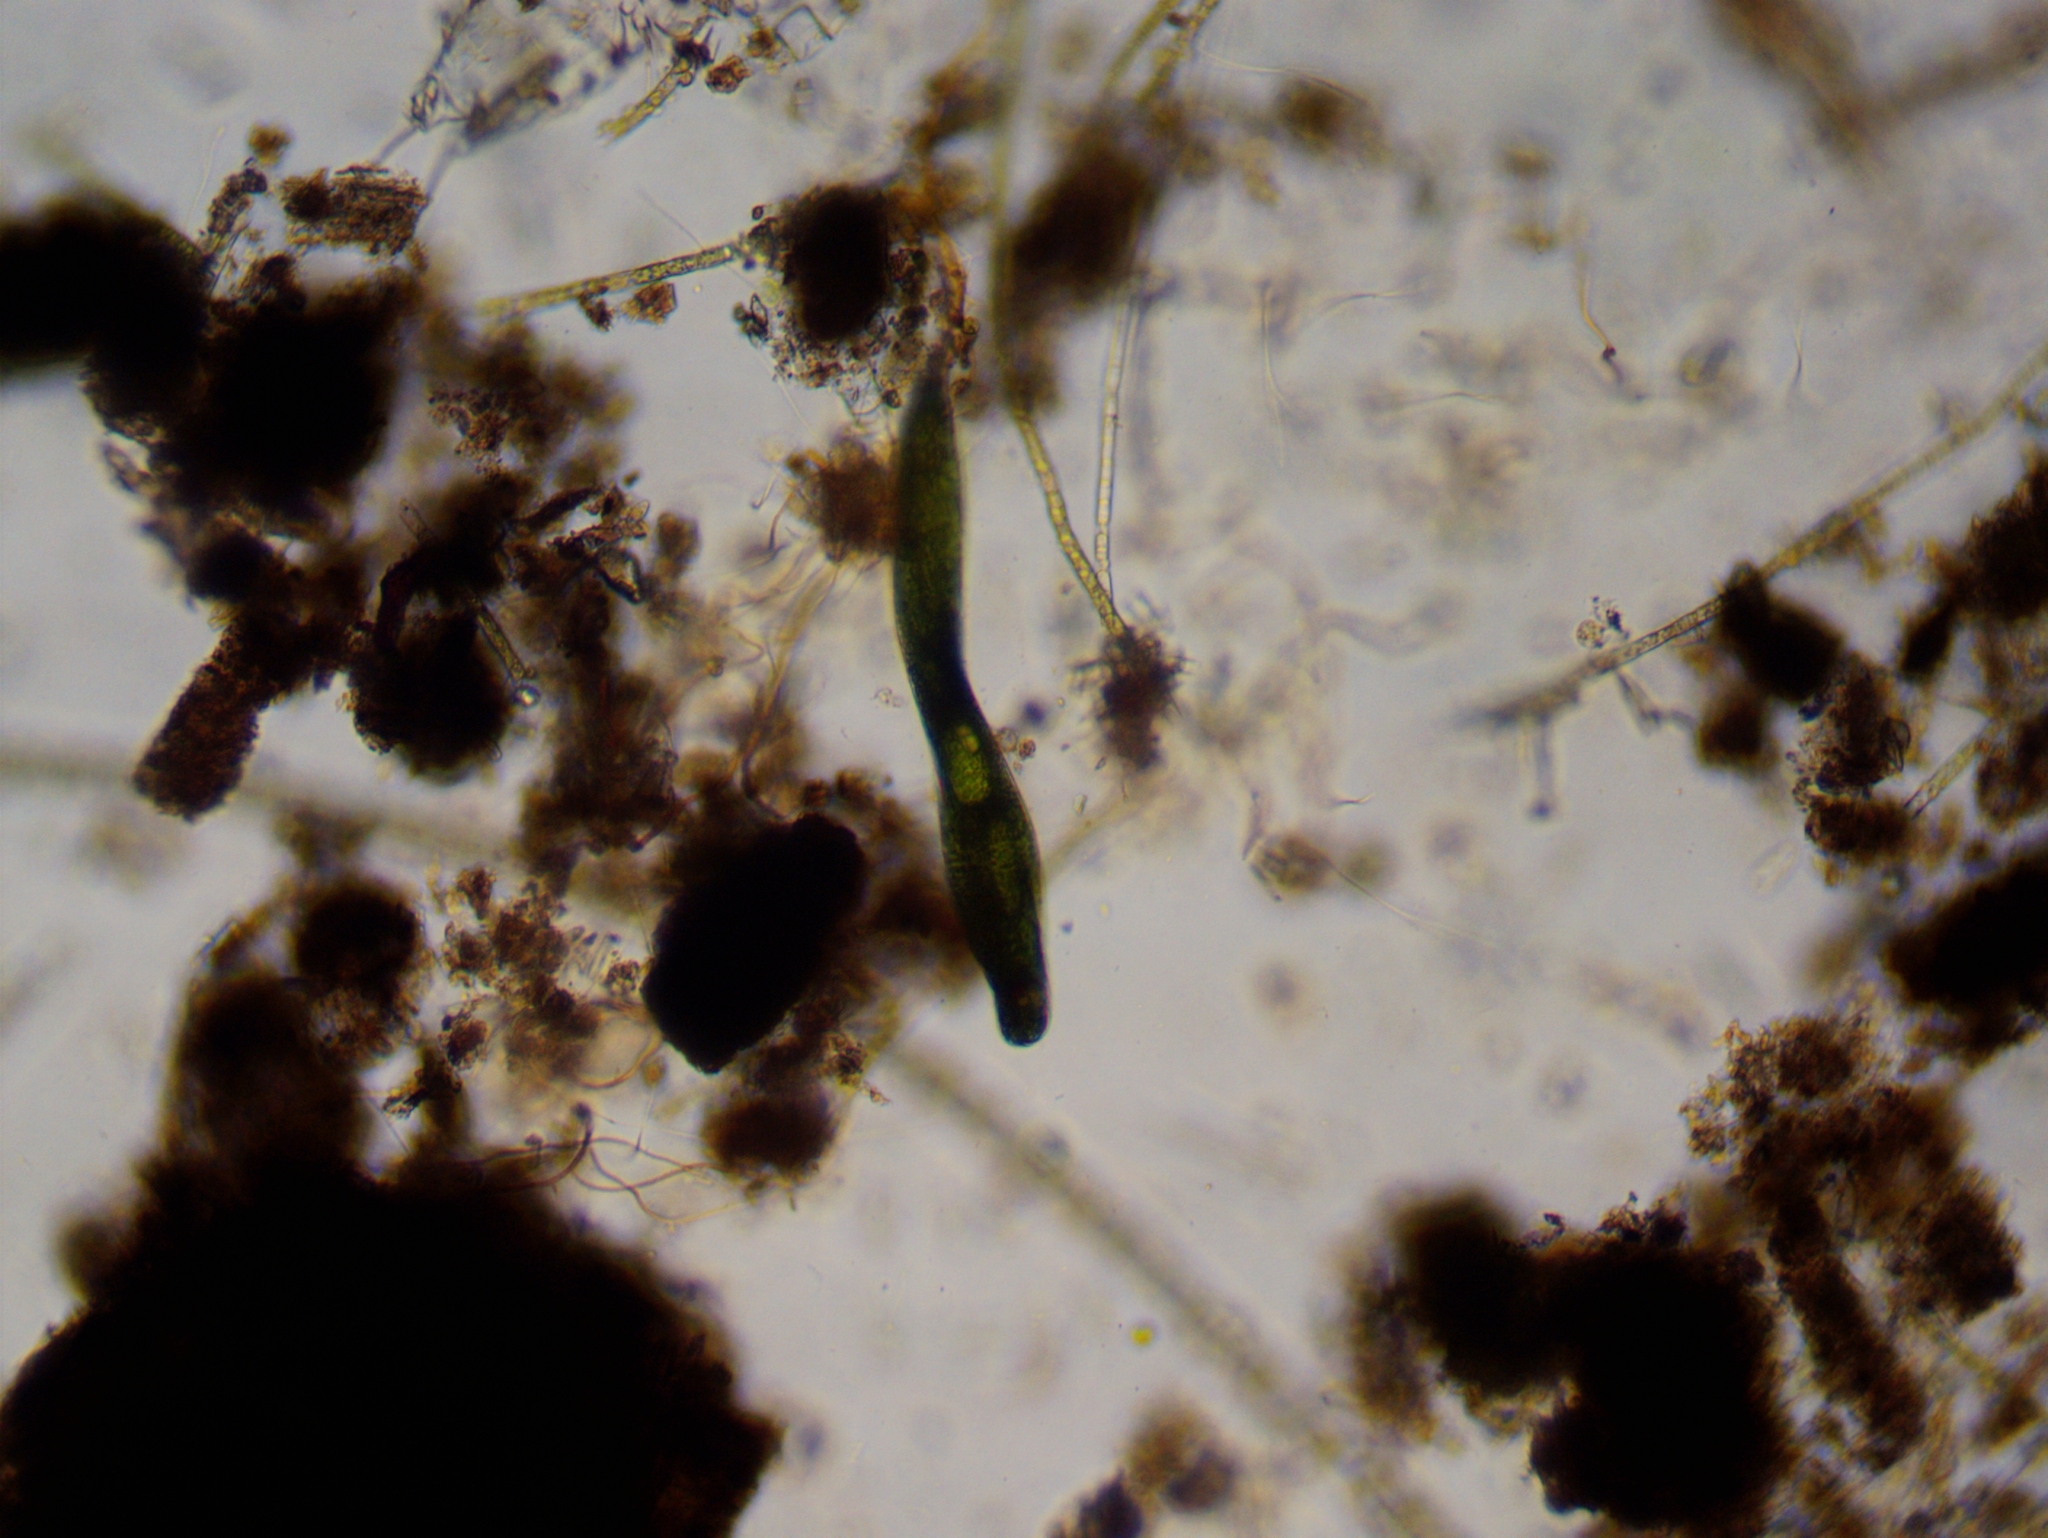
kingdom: Protozoa
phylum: Euglenozoa
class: Euglenoidea
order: Euglenida
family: Phacidae
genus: Lepocinclis
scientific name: Lepocinclis helicoidea
